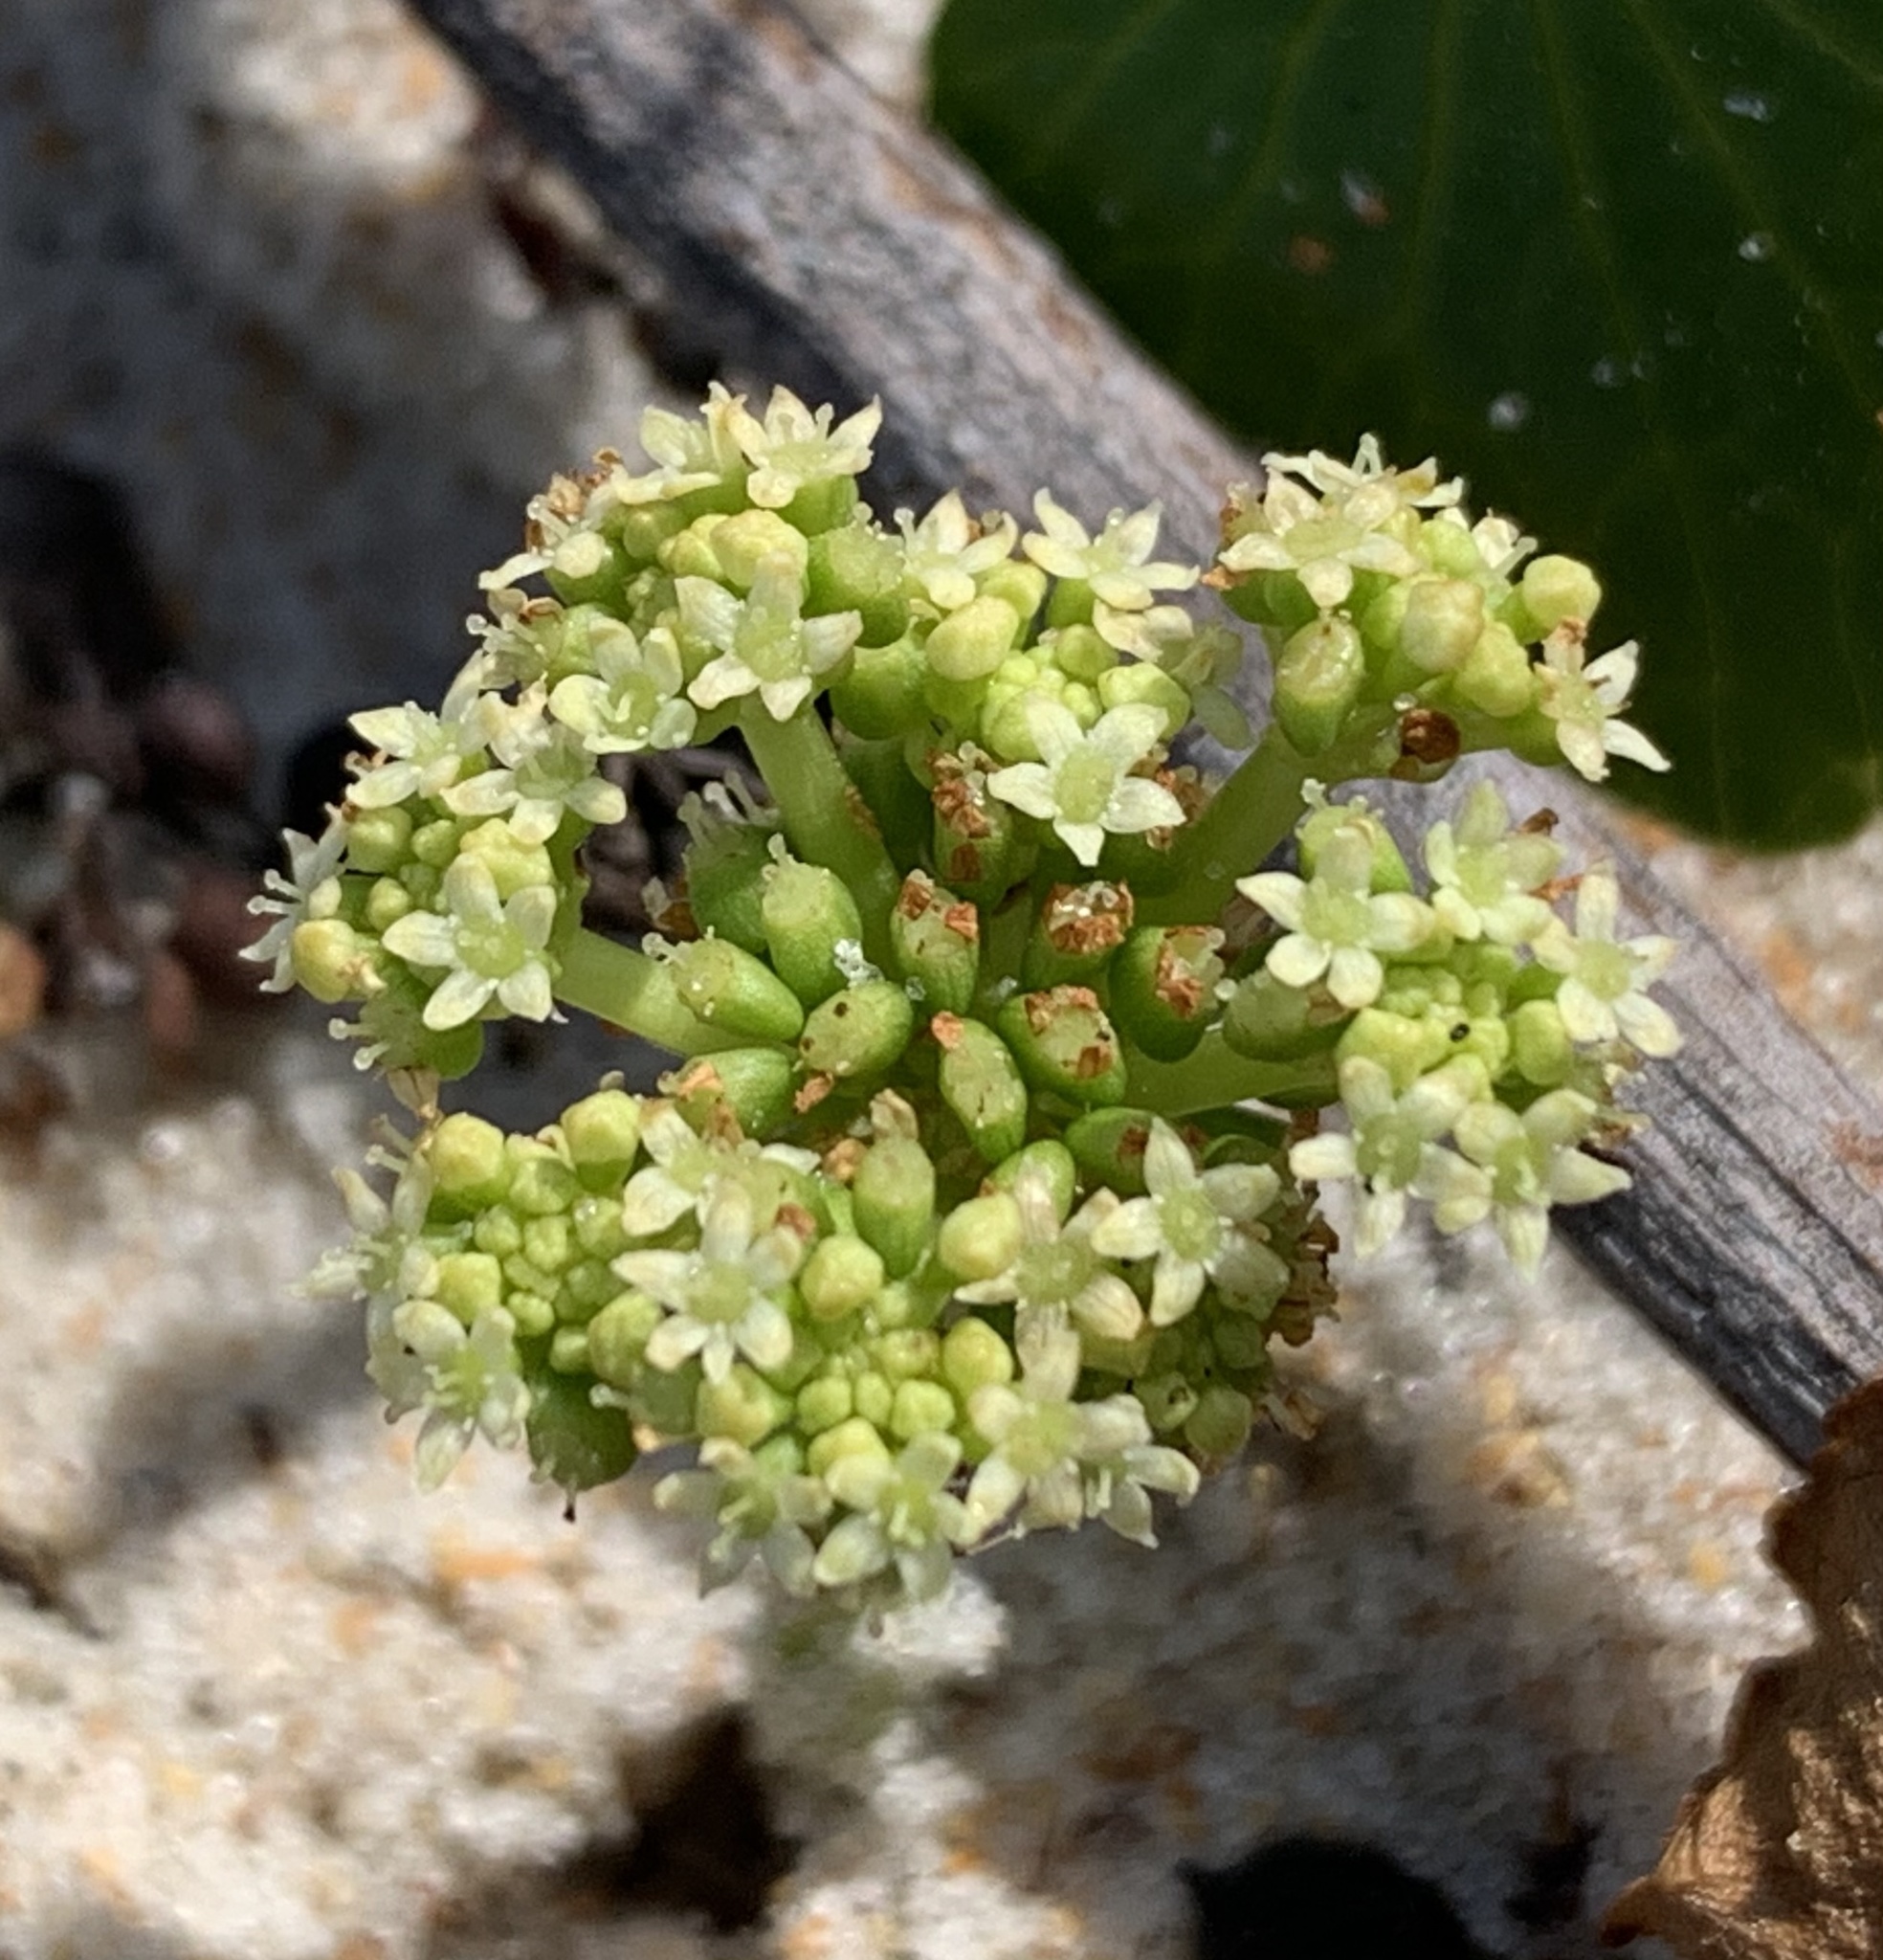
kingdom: Plantae
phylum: Tracheophyta
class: Magnoliopsida
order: Apiales
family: Araliaceae
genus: Hydrocotyle
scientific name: Hydrocotyle bonariensis
